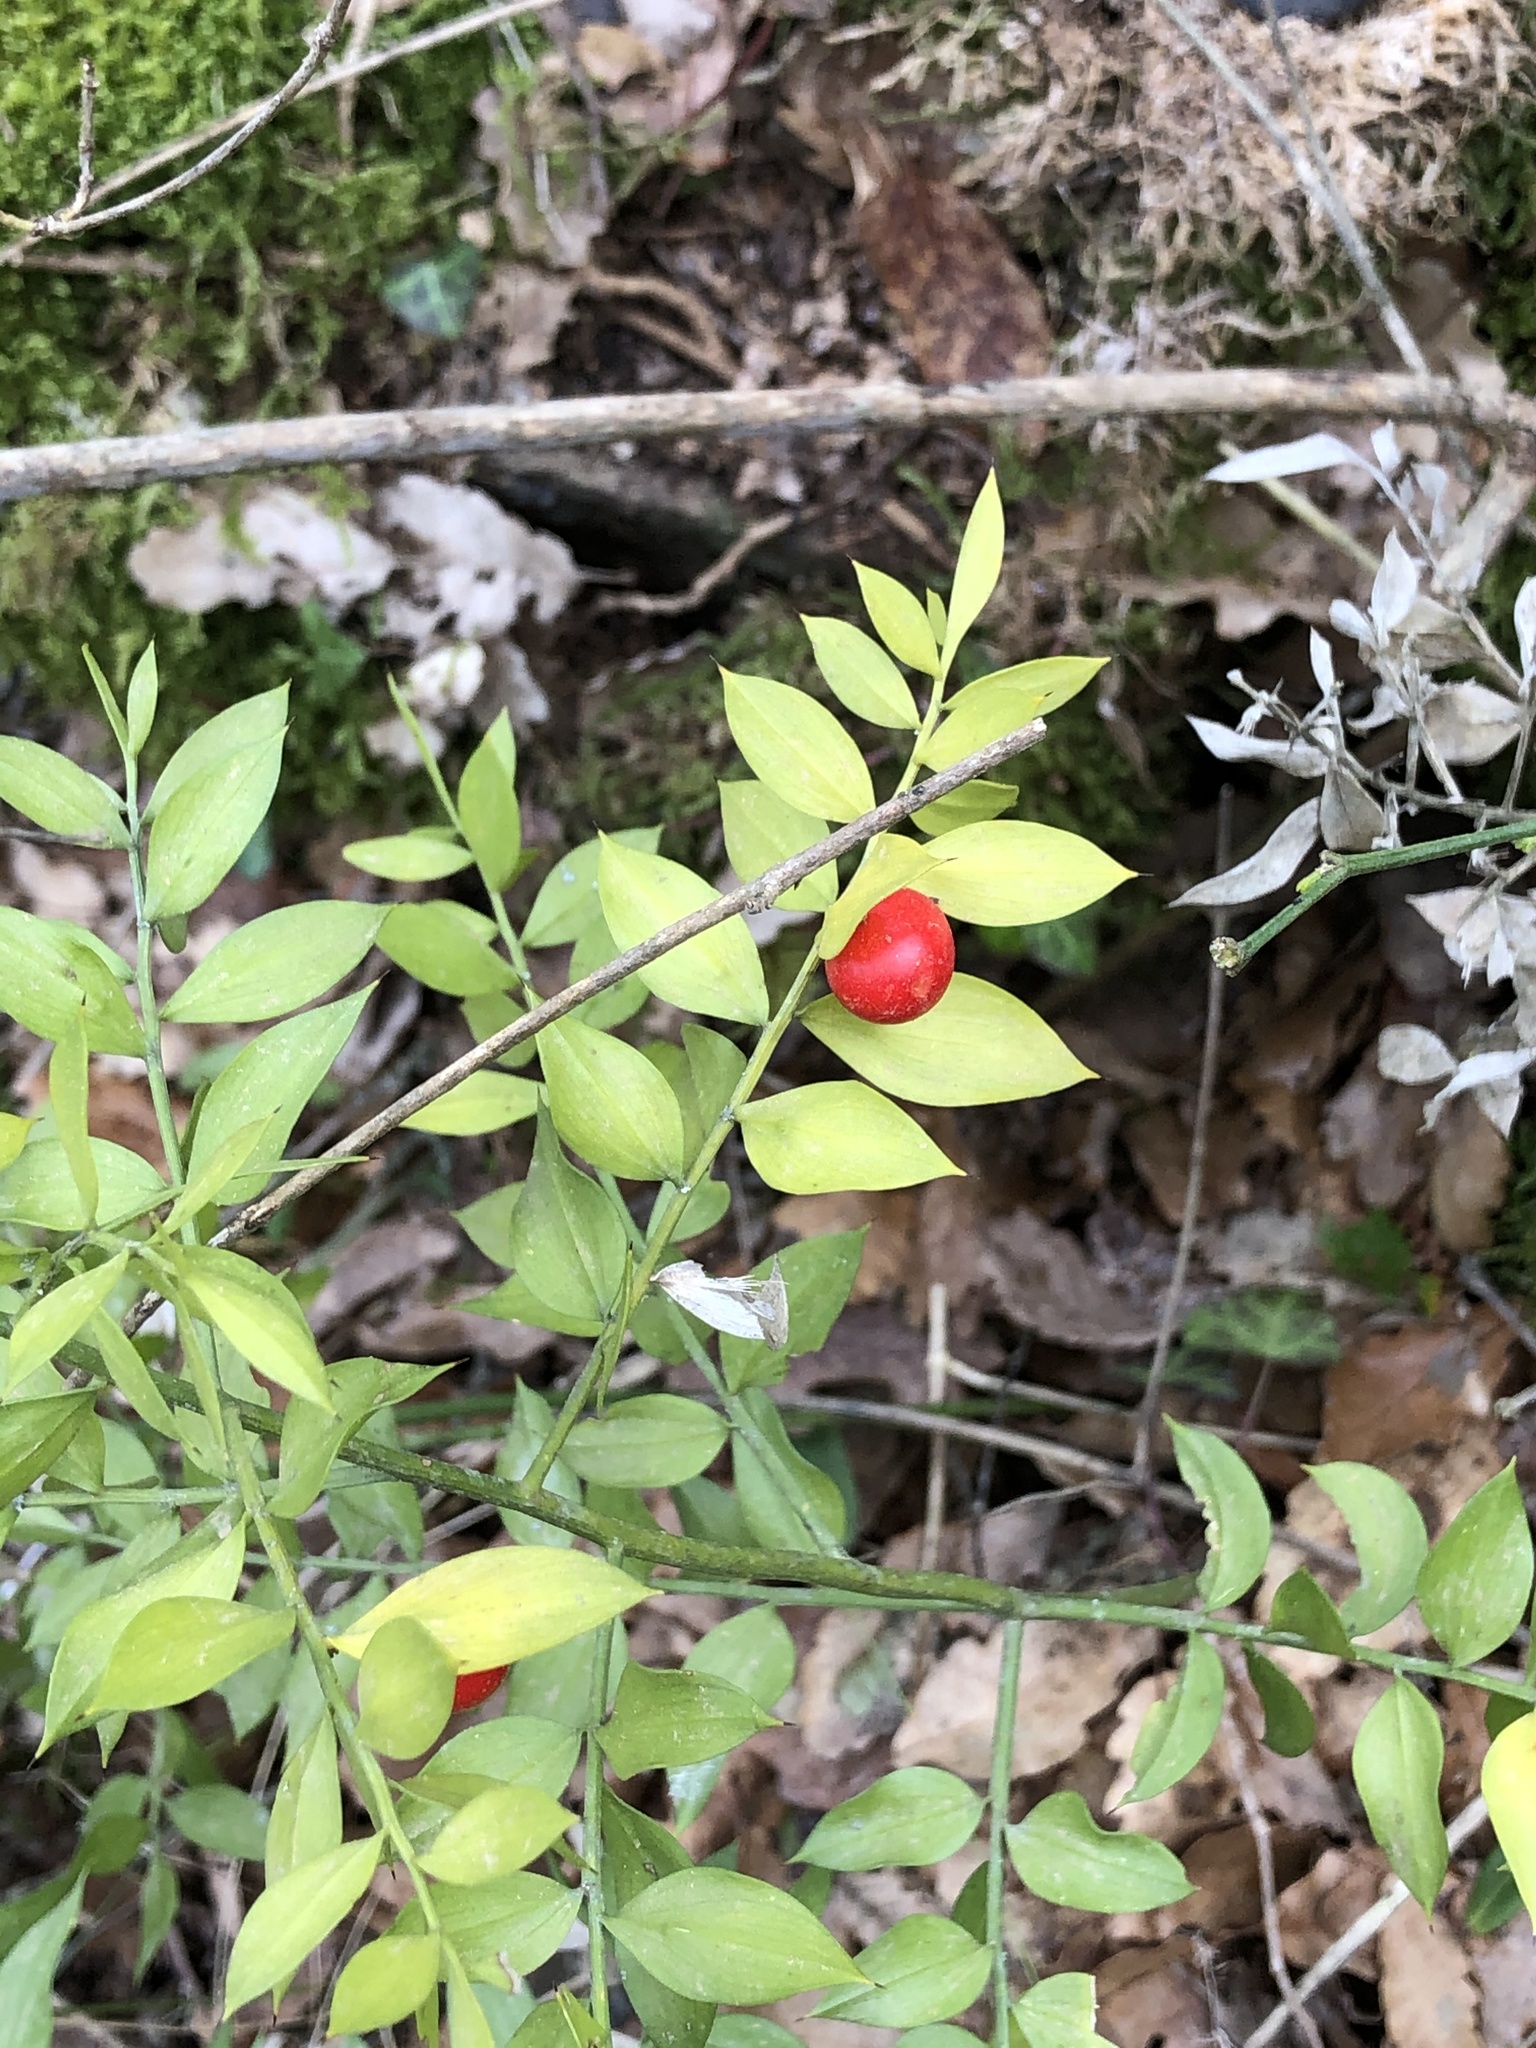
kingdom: Plantae
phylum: Tracheophyta
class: Liliopsida
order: Asparagales
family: Asparagaceae
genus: Ruscus
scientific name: Ruscus aculeatus
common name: Butcher's-broom
